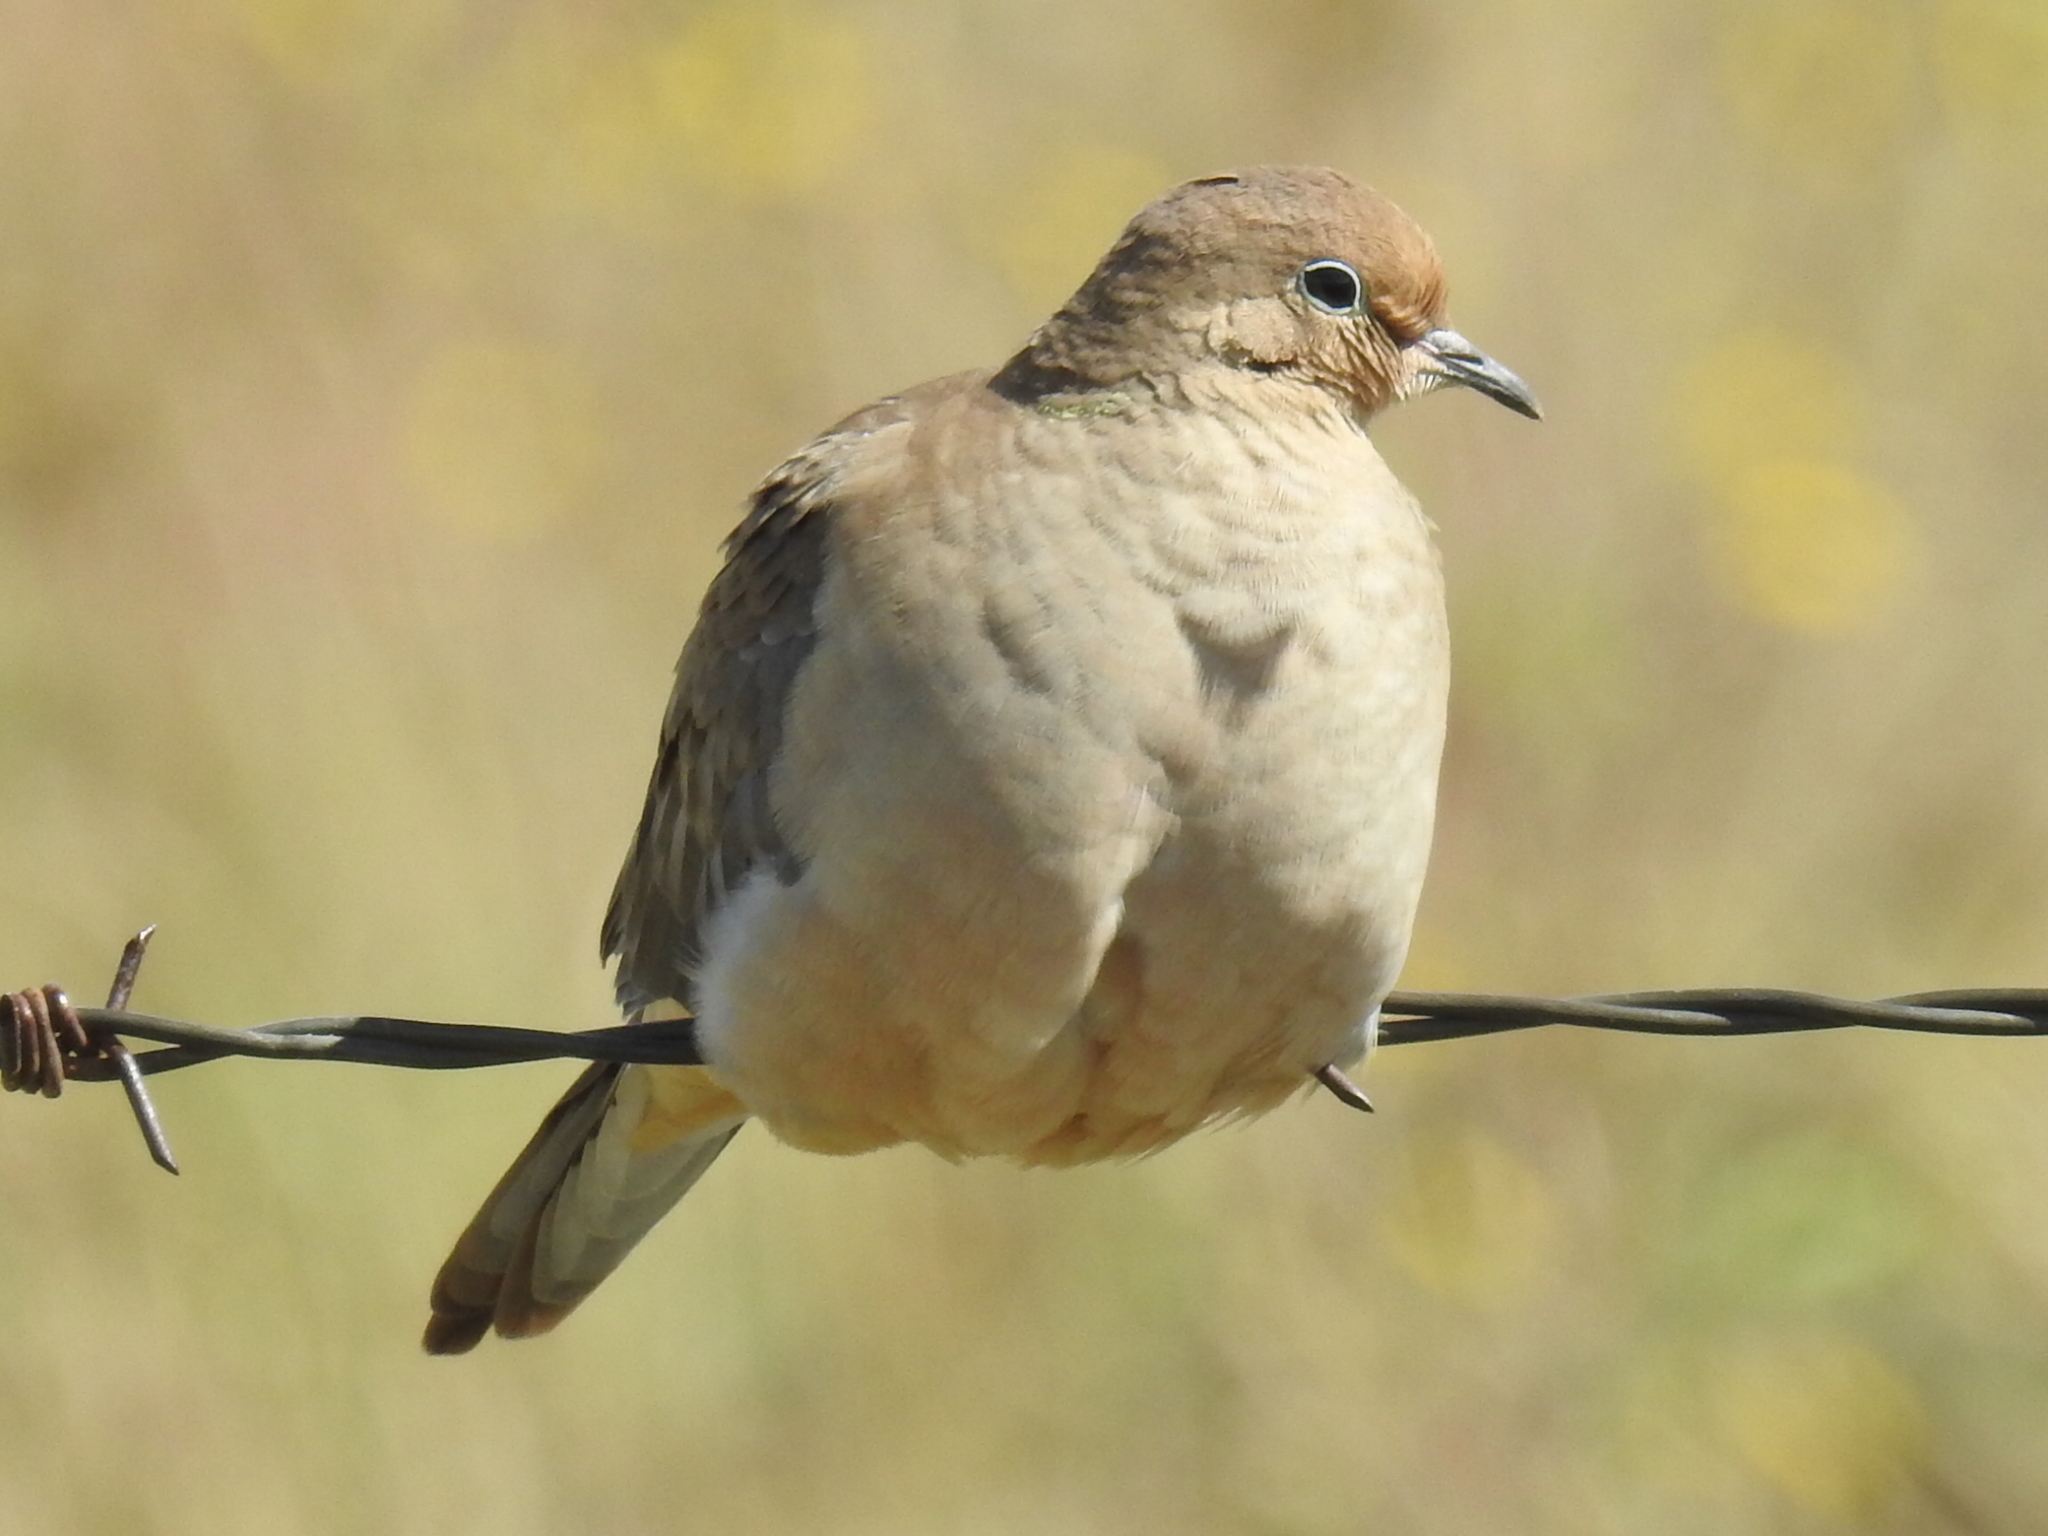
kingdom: Animalia
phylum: Chordata
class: Aves
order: Columbiformes
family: Columbidae
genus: Zenaida
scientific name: Zenaida macroura
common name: Mourning dove
